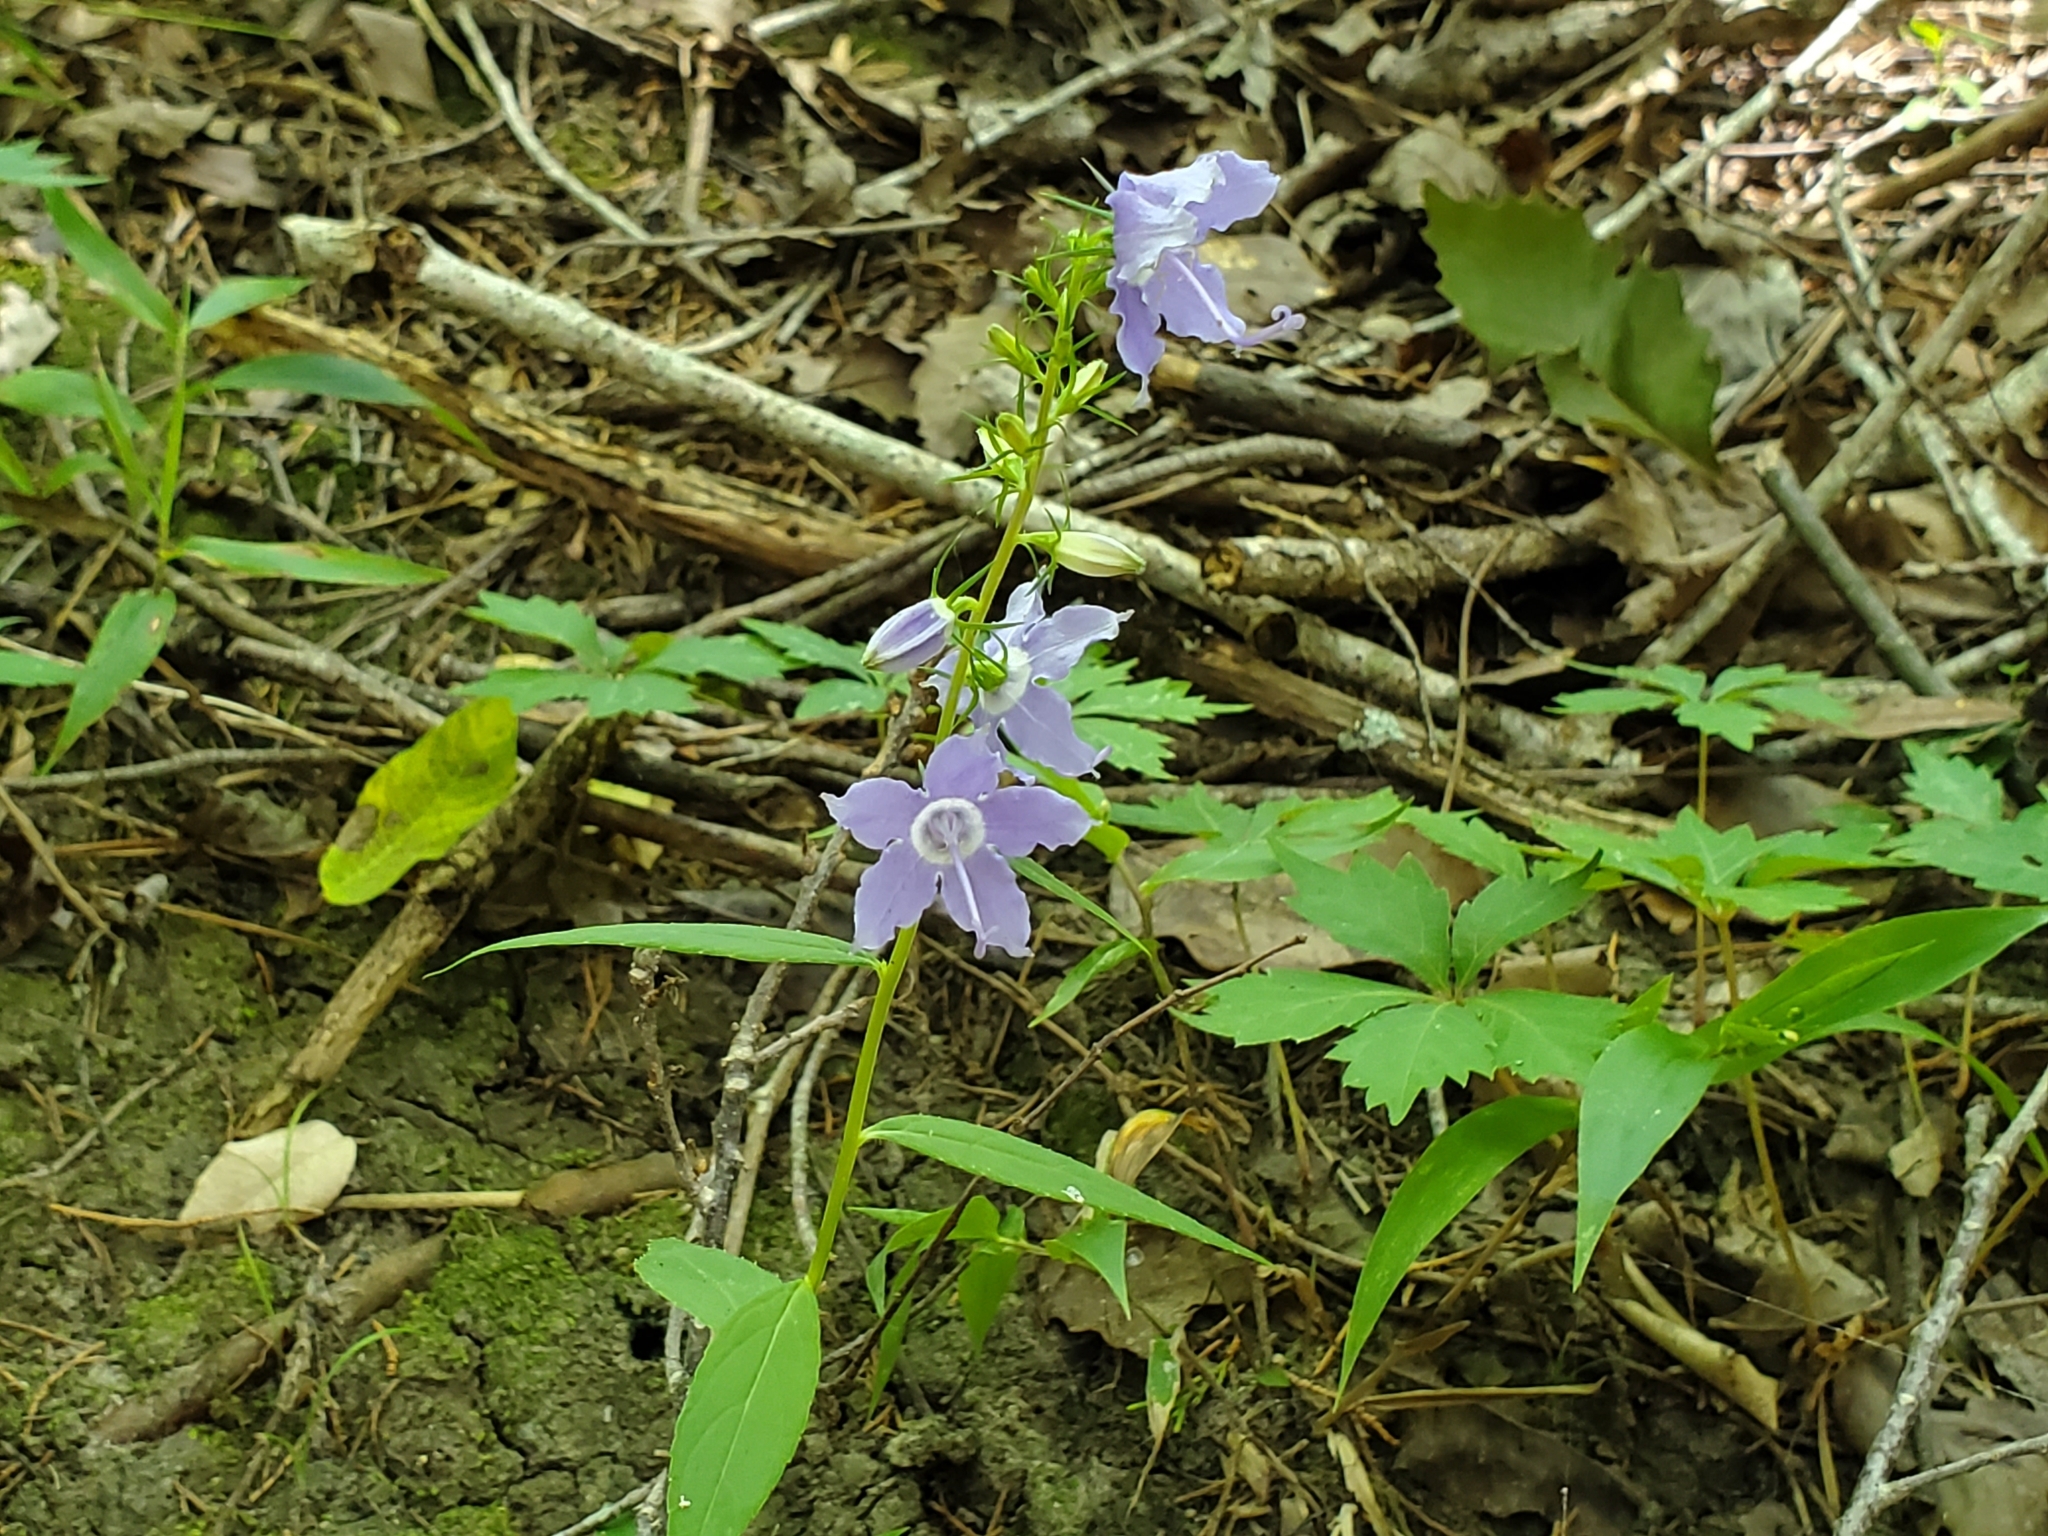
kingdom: Plantae
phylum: Tracheophyta
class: Magnoliopsida
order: Asterales
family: Campanulaceae
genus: Campanulastrum
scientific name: Campanulastrum americanum
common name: American bellflower
